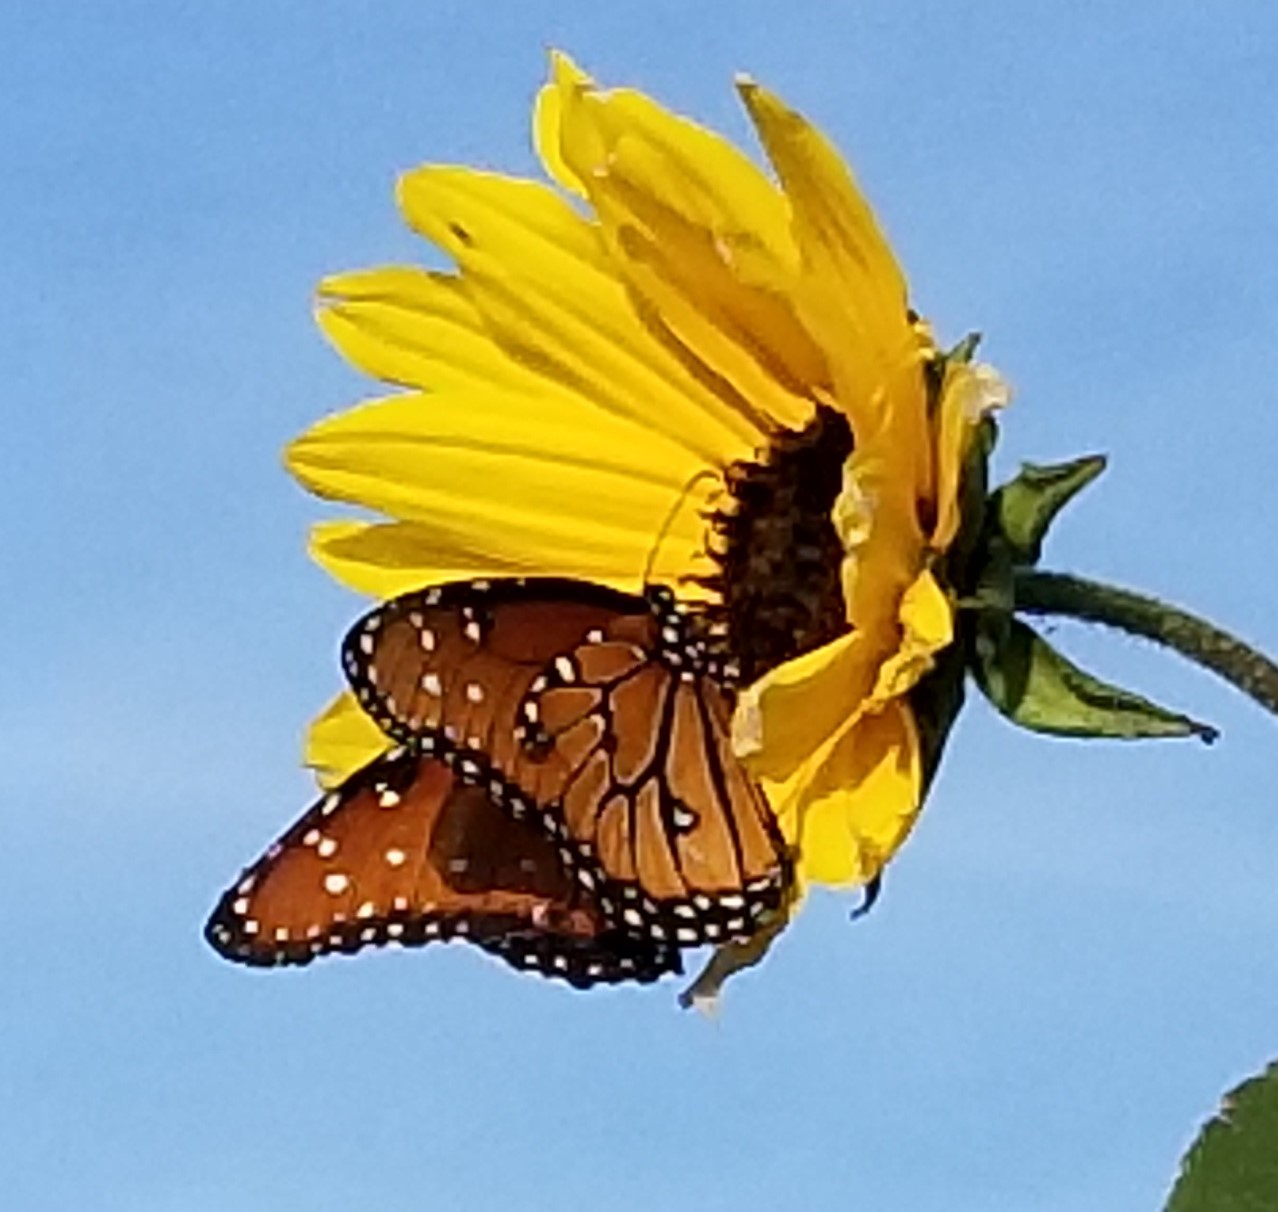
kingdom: Animalia
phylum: Arthropoda
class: Insecta
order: Lepidoptera
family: Nymphalidae
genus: Danaus
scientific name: Danaus gilippus
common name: Queen
